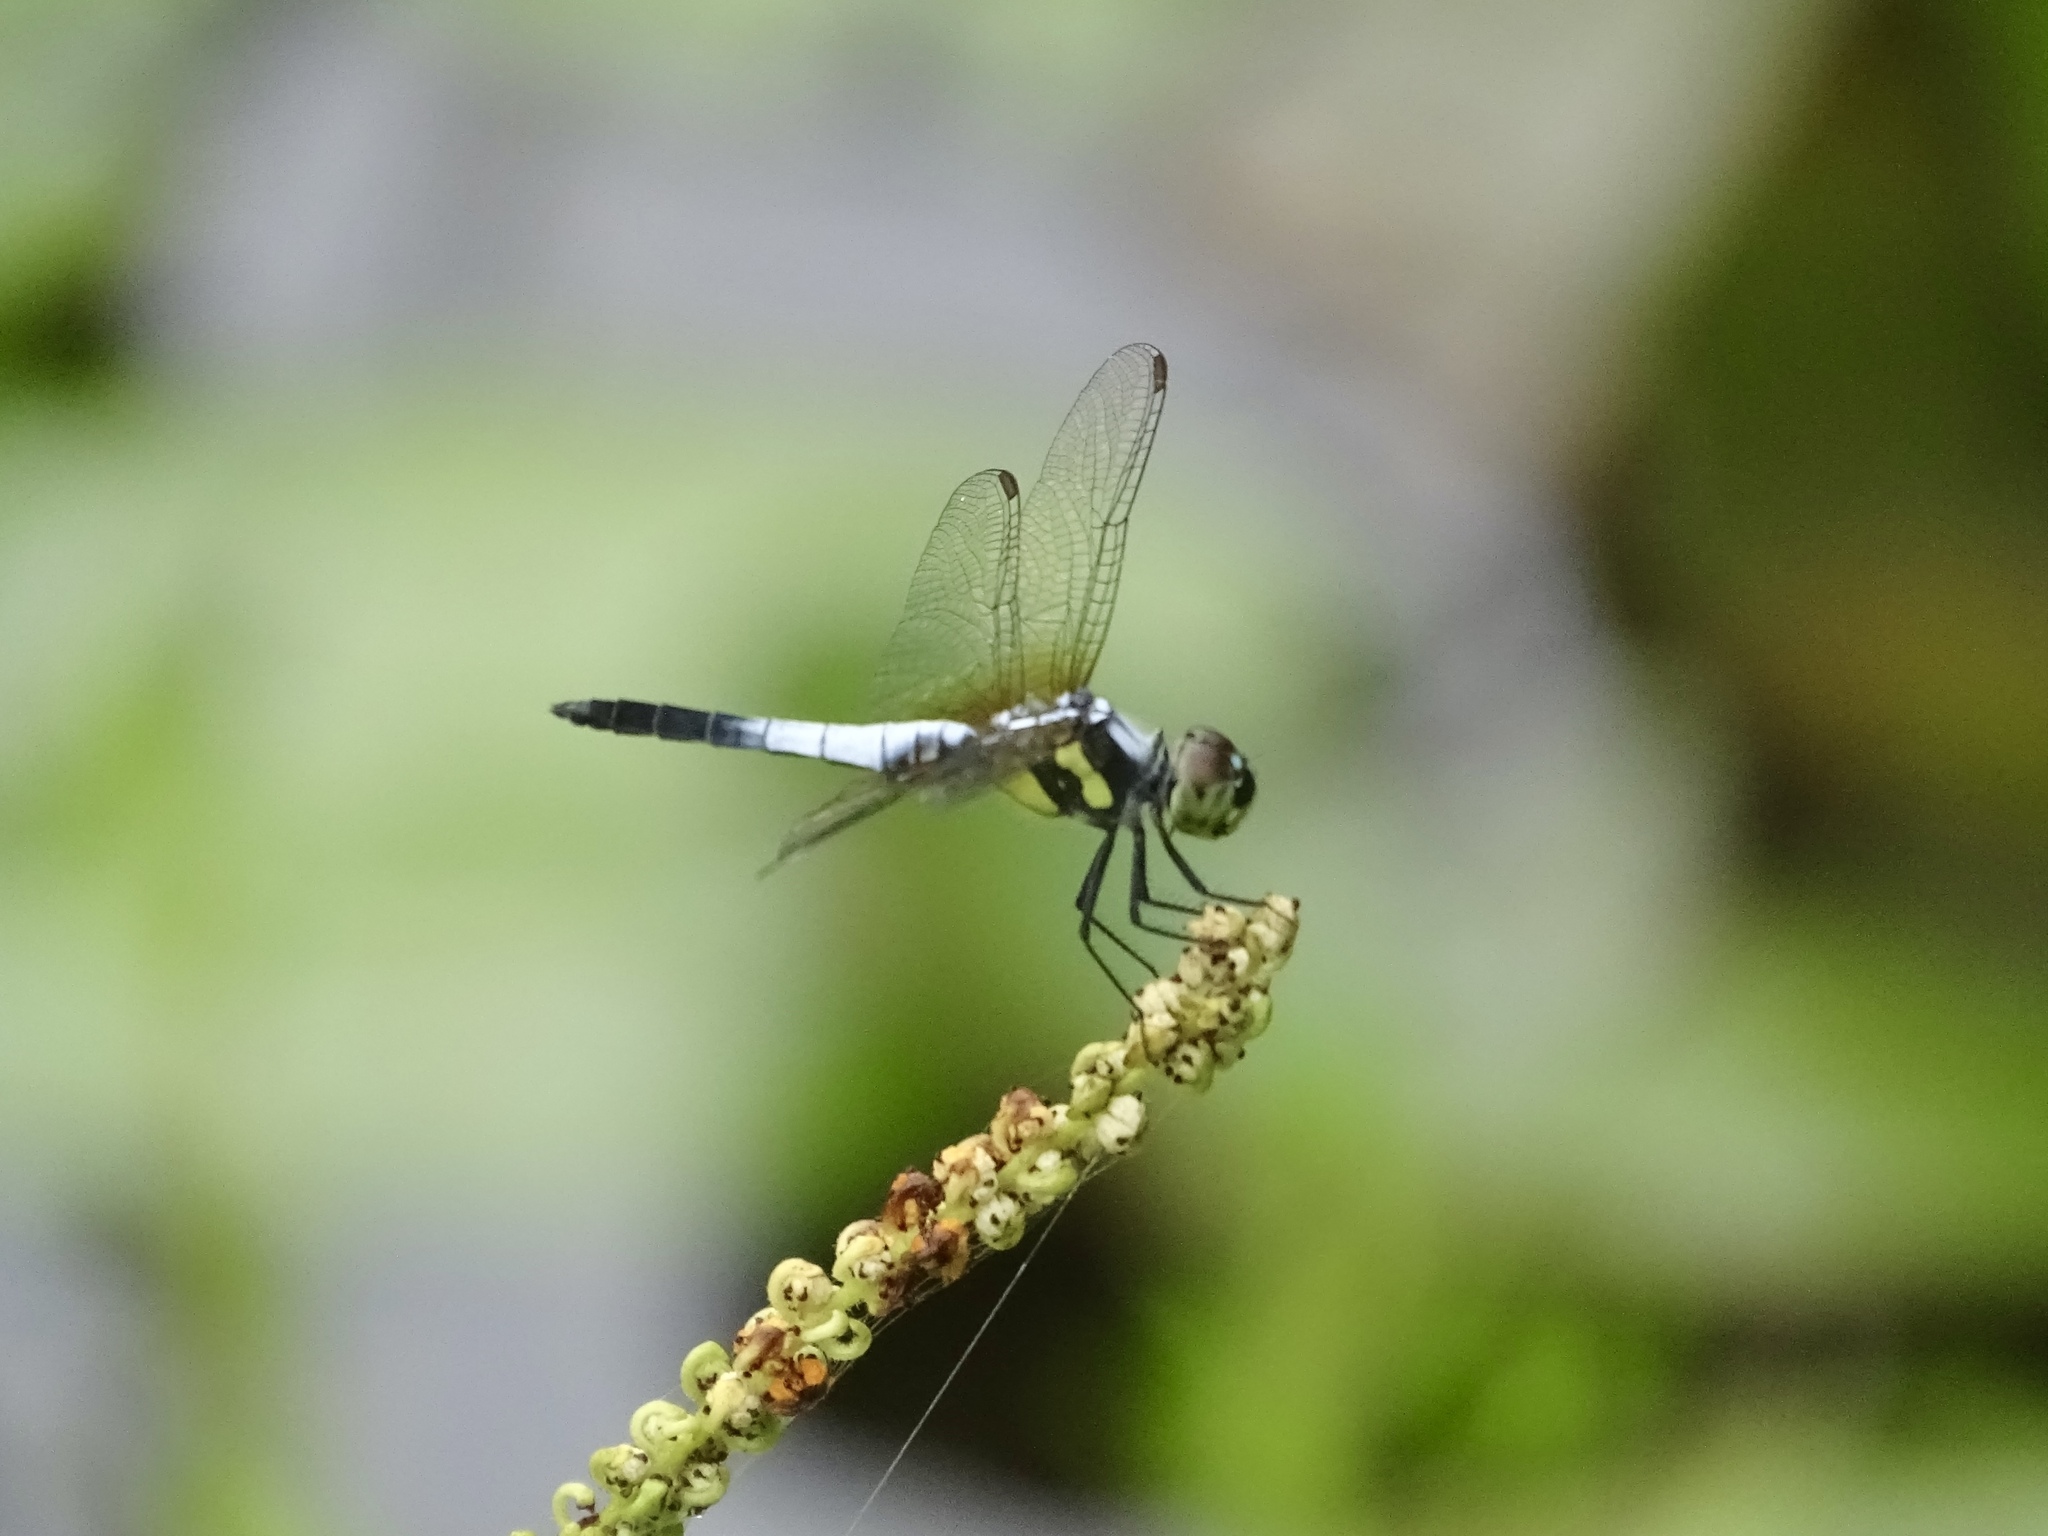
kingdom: Animalia
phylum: Arthropoda
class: Insecta
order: Odonata
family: Libellulidae
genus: Brachydiplax
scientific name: Brachydiplax chalybea
